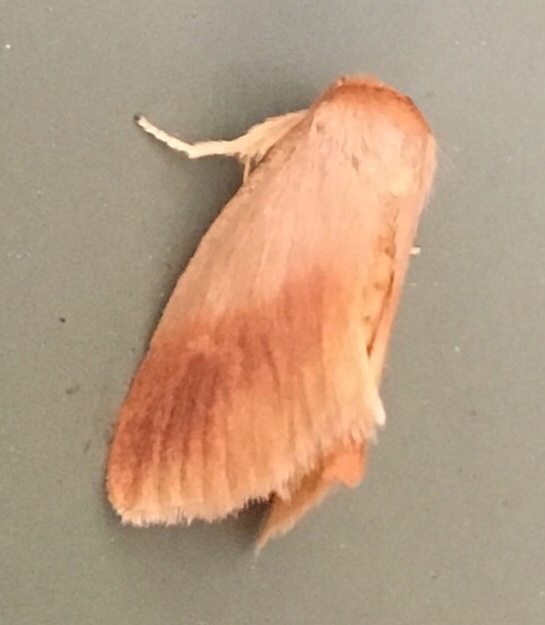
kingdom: Animalia
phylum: Arthropoda
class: Insecta
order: Lepidoptera
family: Limacodidae
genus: Tortricidia
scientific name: Tortricidia testacea
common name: Early button slug moth
